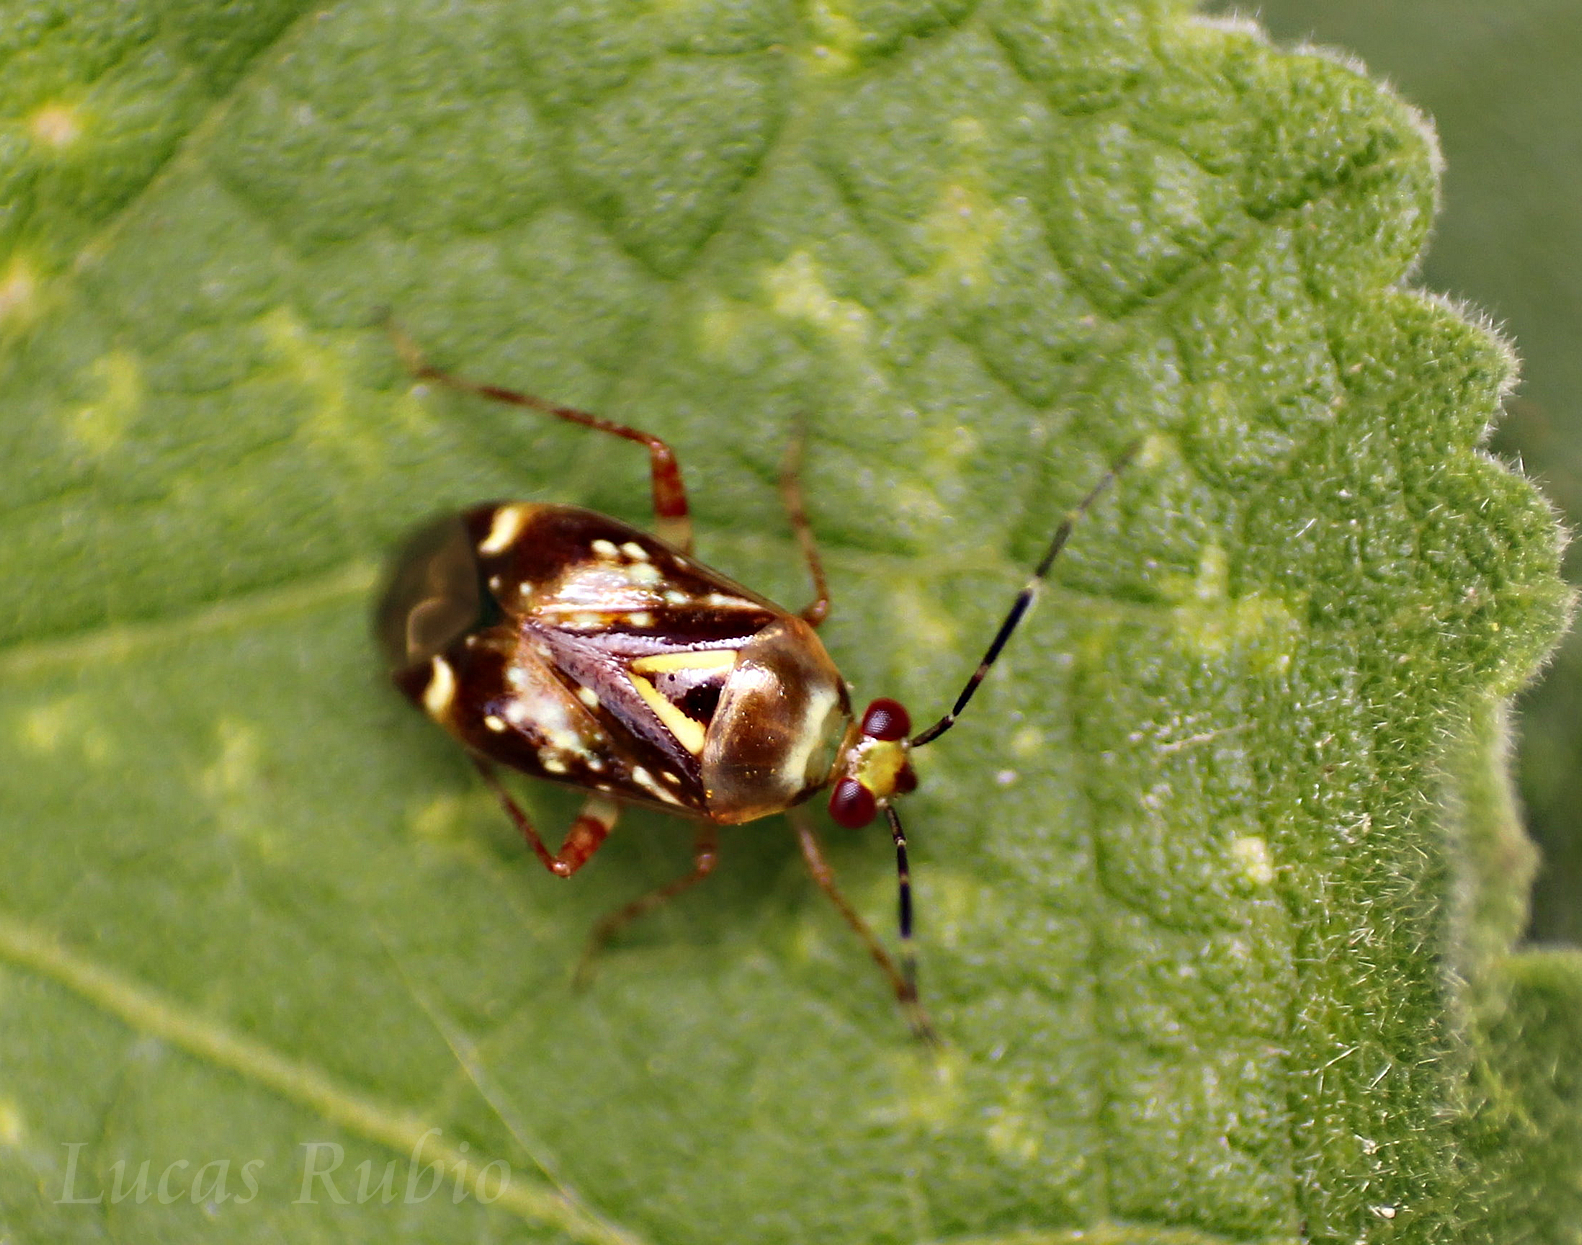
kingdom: Animalia
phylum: Arthropoda
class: Insecta
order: Hemiptera
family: Miridae
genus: Horciasoides
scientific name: Horciasoides nobilellus
